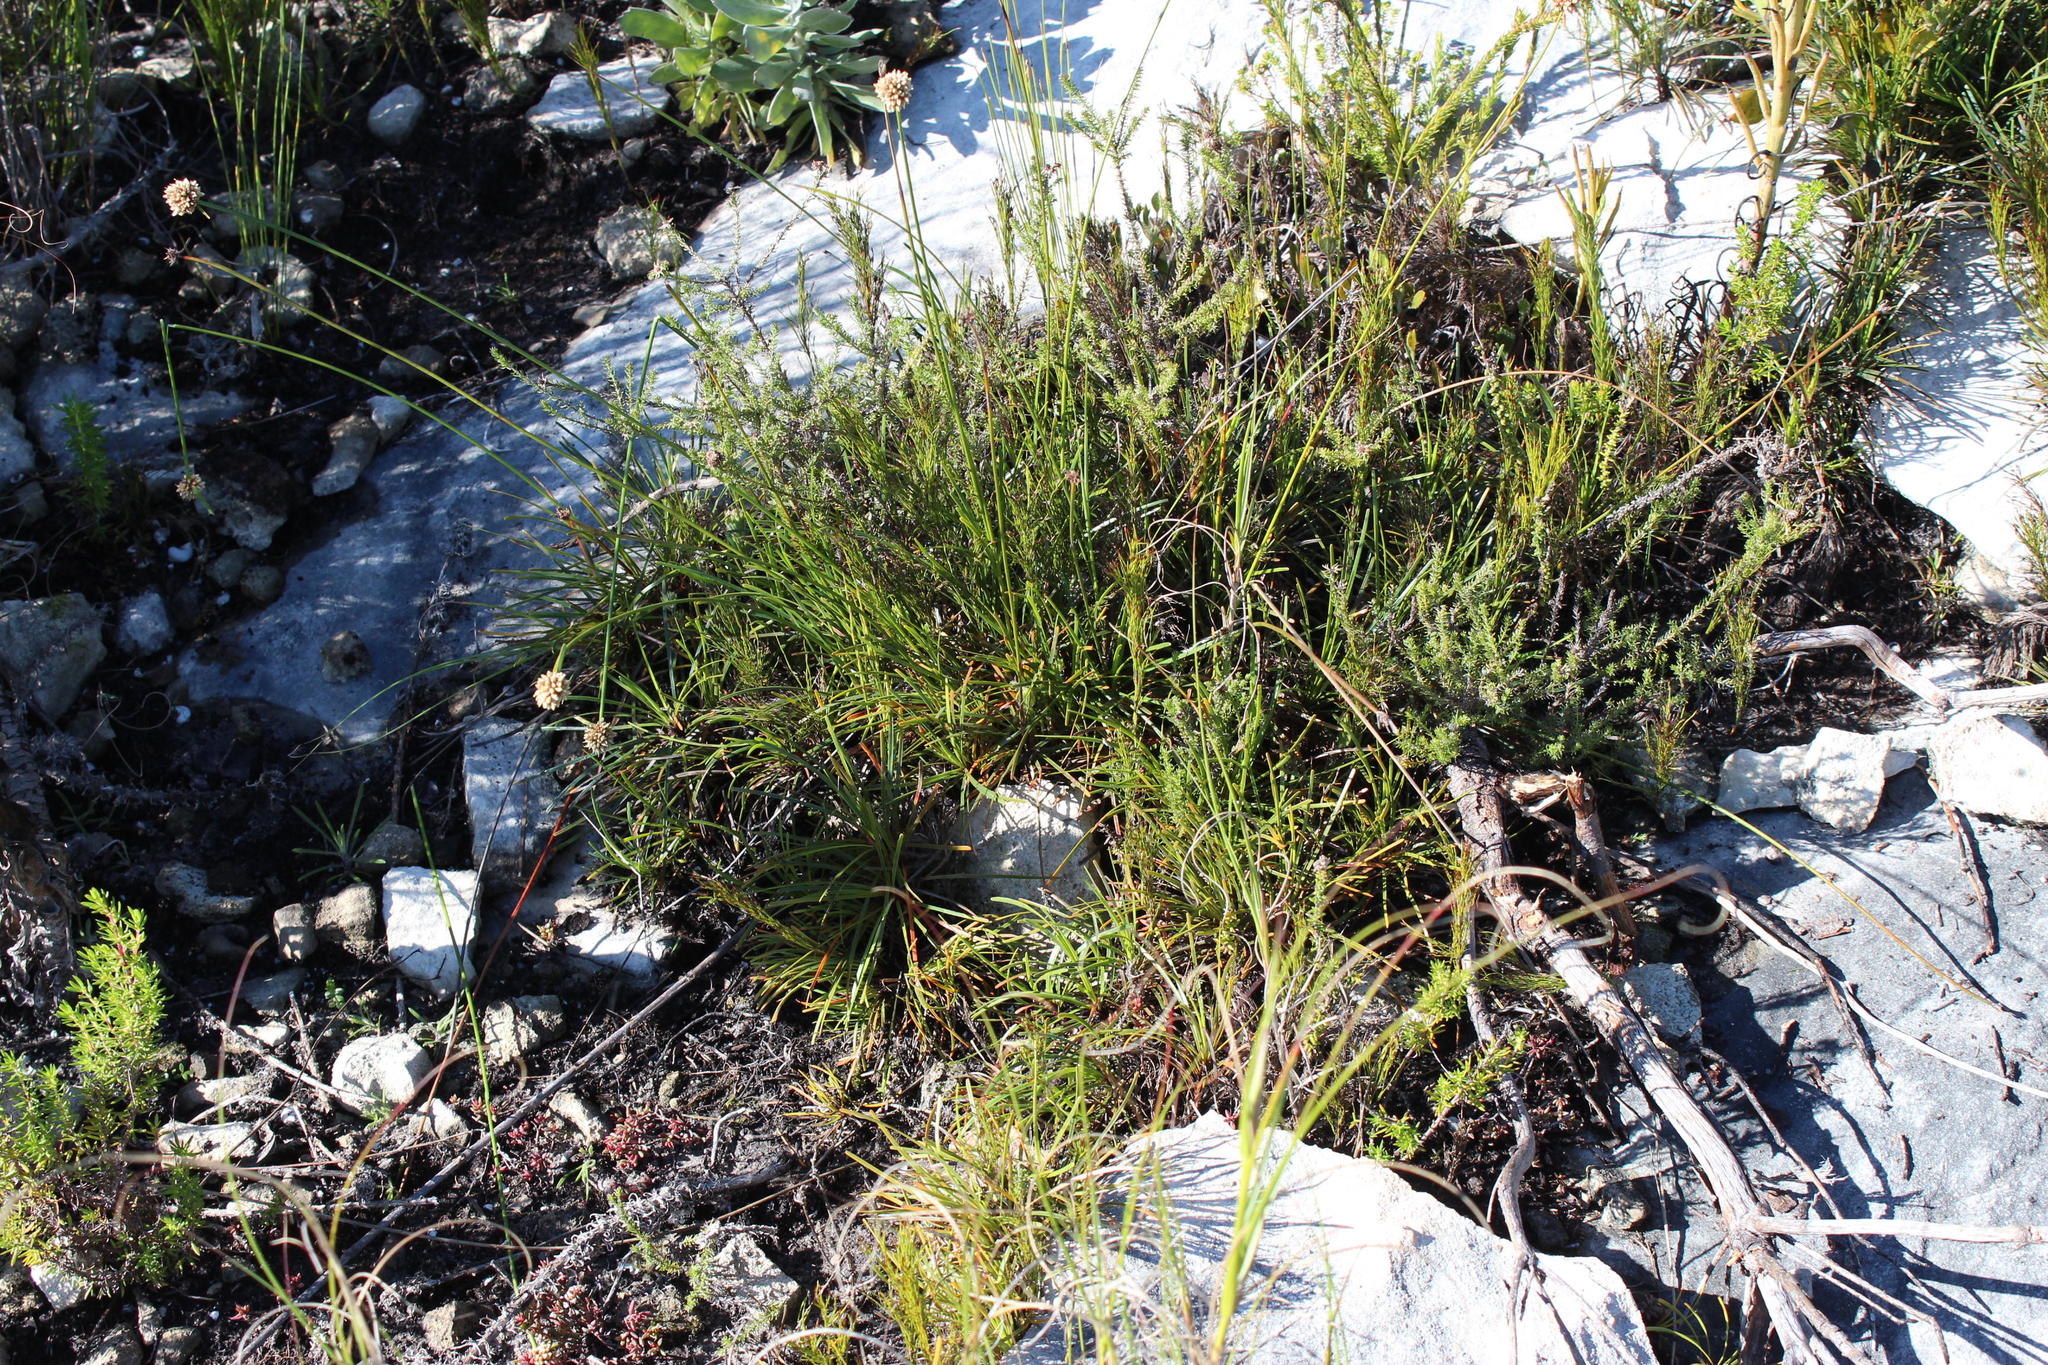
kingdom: Plantae
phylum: Tracheophyta
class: Liliopsida
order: Poales
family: Cyperaceae
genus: Ficinia
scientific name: Ficinia praemorsa
